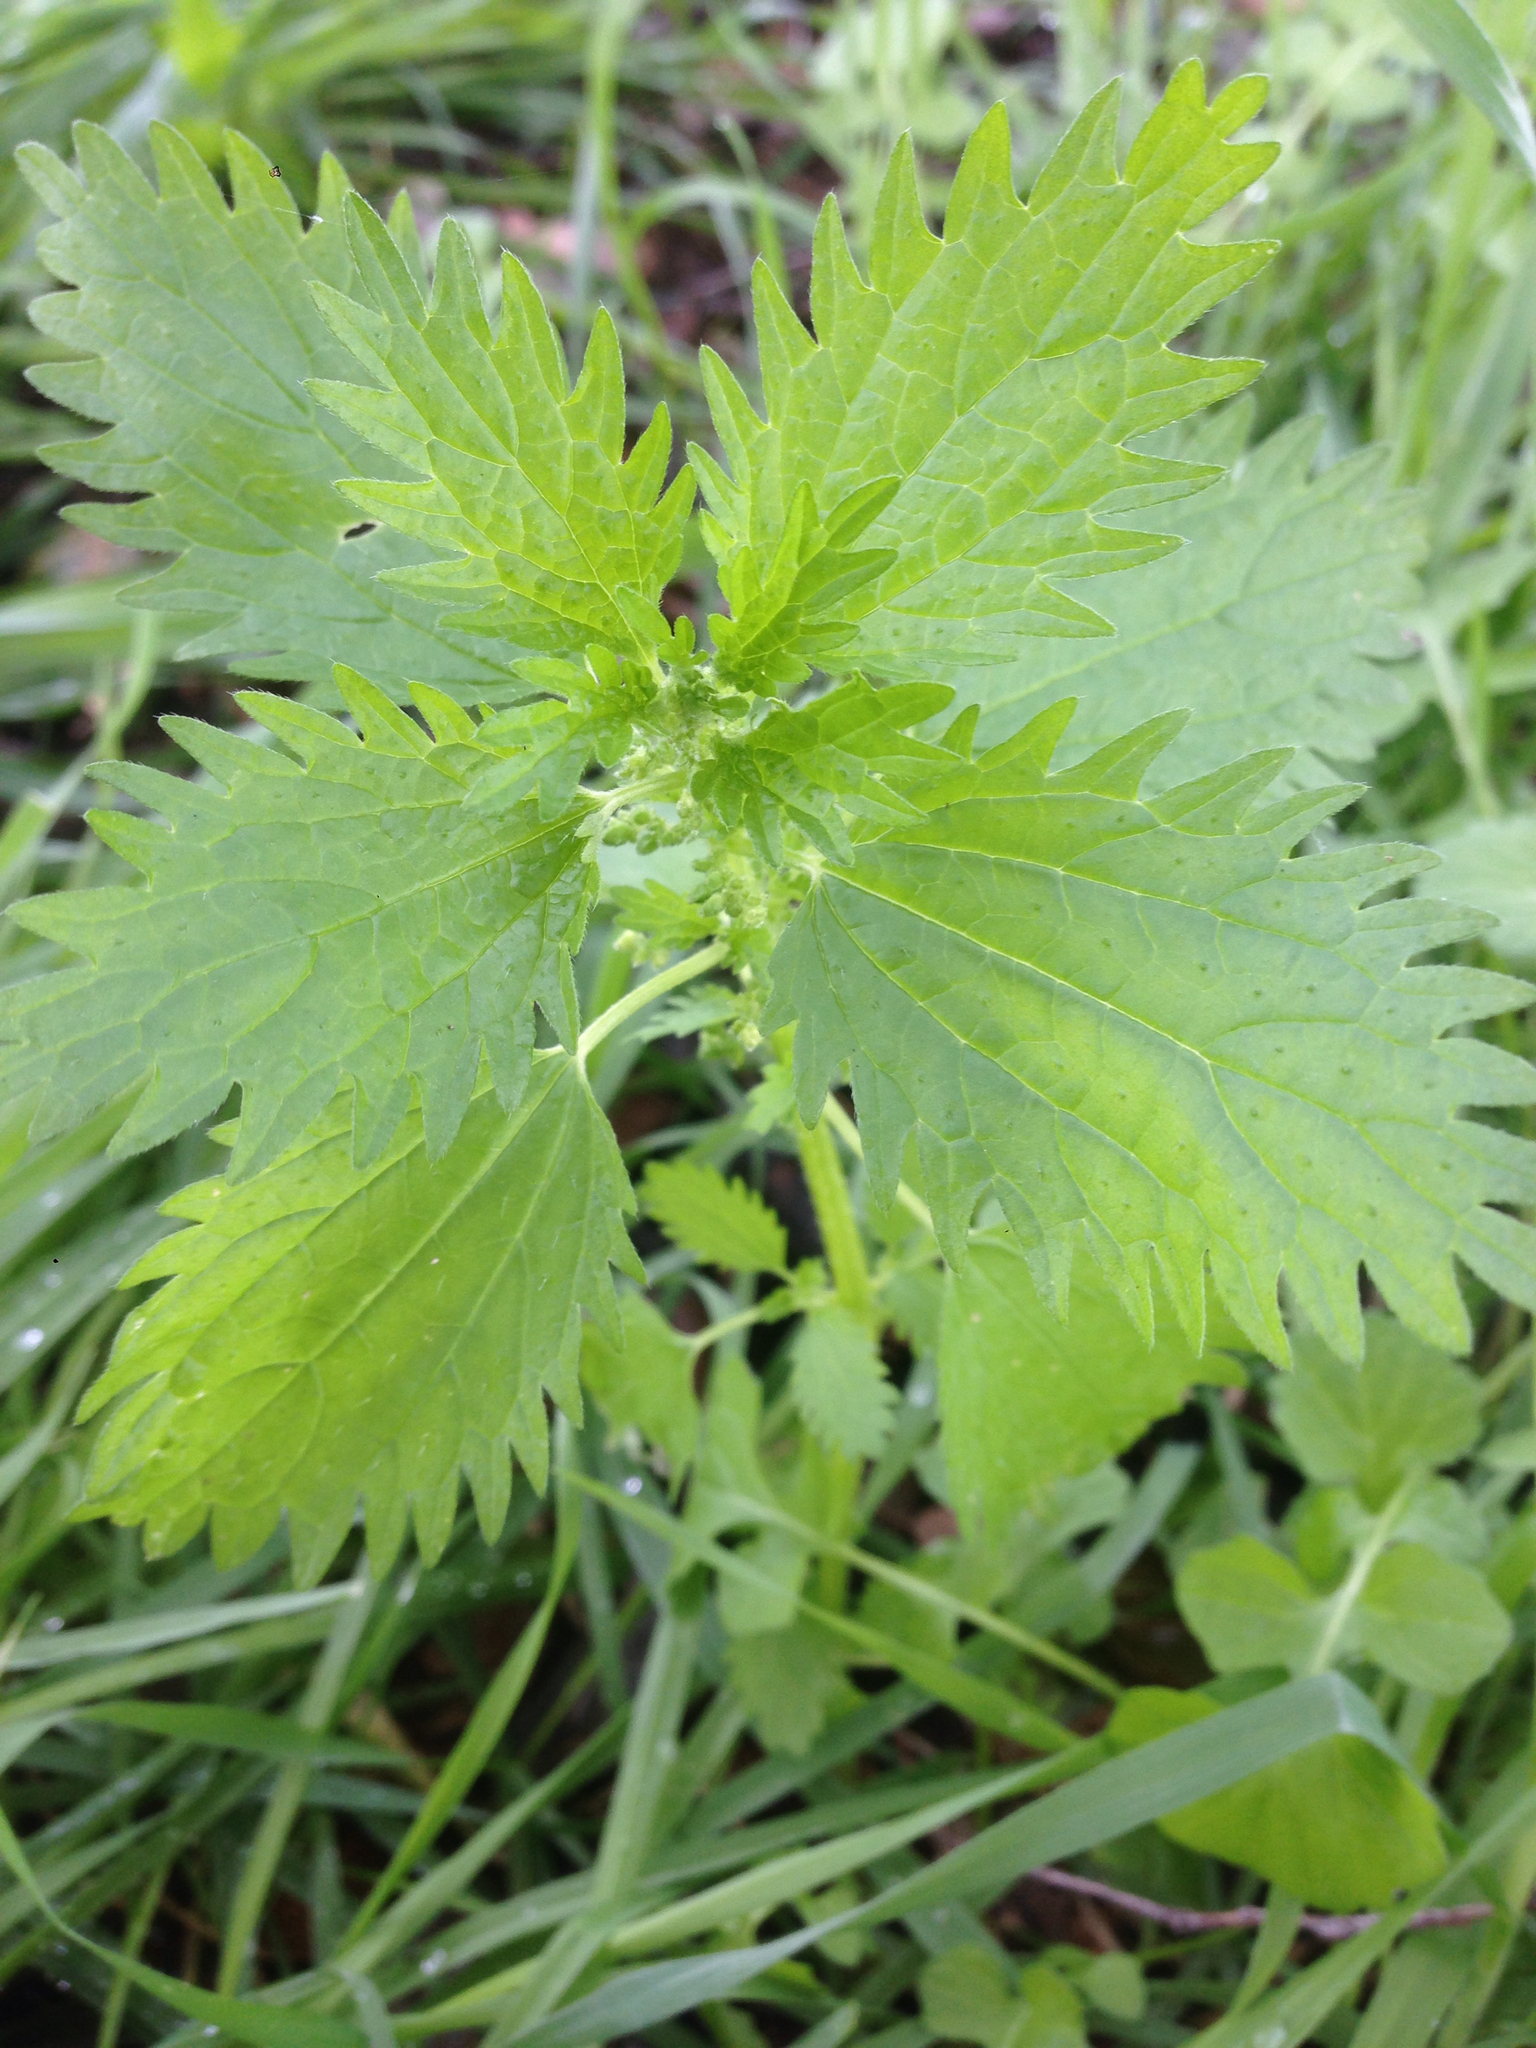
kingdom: Plantae
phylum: Tracheophyta
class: Magnoliopsida
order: Rosales
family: Urticaceae
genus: Urtica
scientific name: Urtica urens
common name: Dwarf nettle
